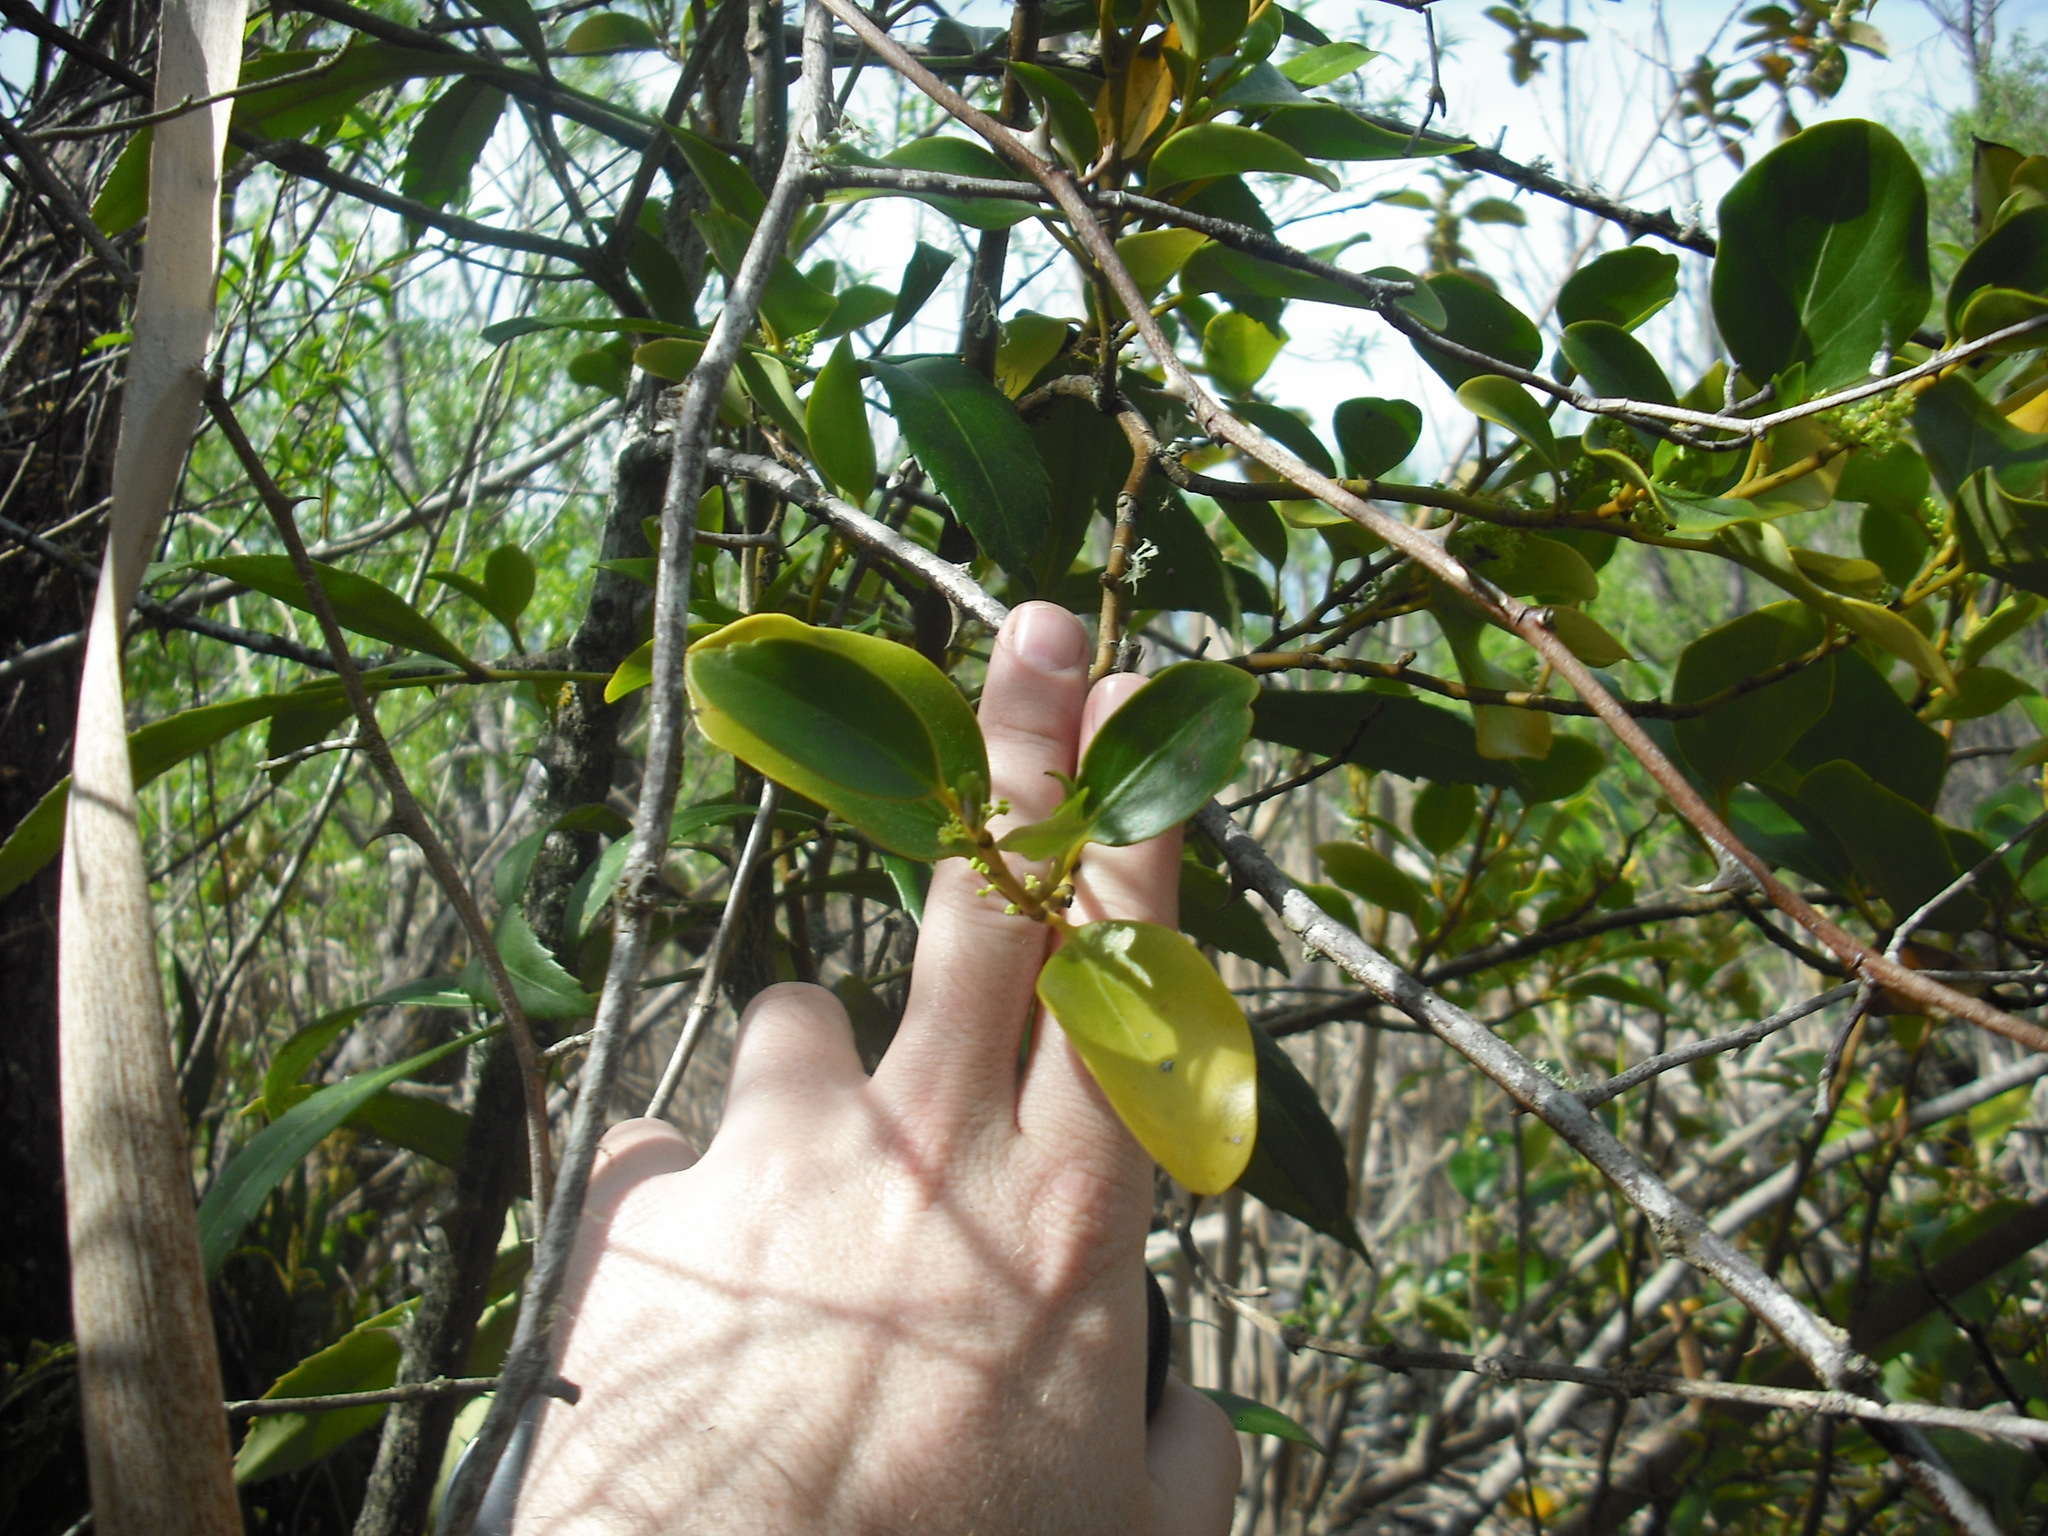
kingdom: Plantae
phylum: Tracheophyta
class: Magnoliopsida
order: Apiales
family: Griseliniaceae
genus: Griselinia
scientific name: Griselinia littoralis
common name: New zealand broadleaf
